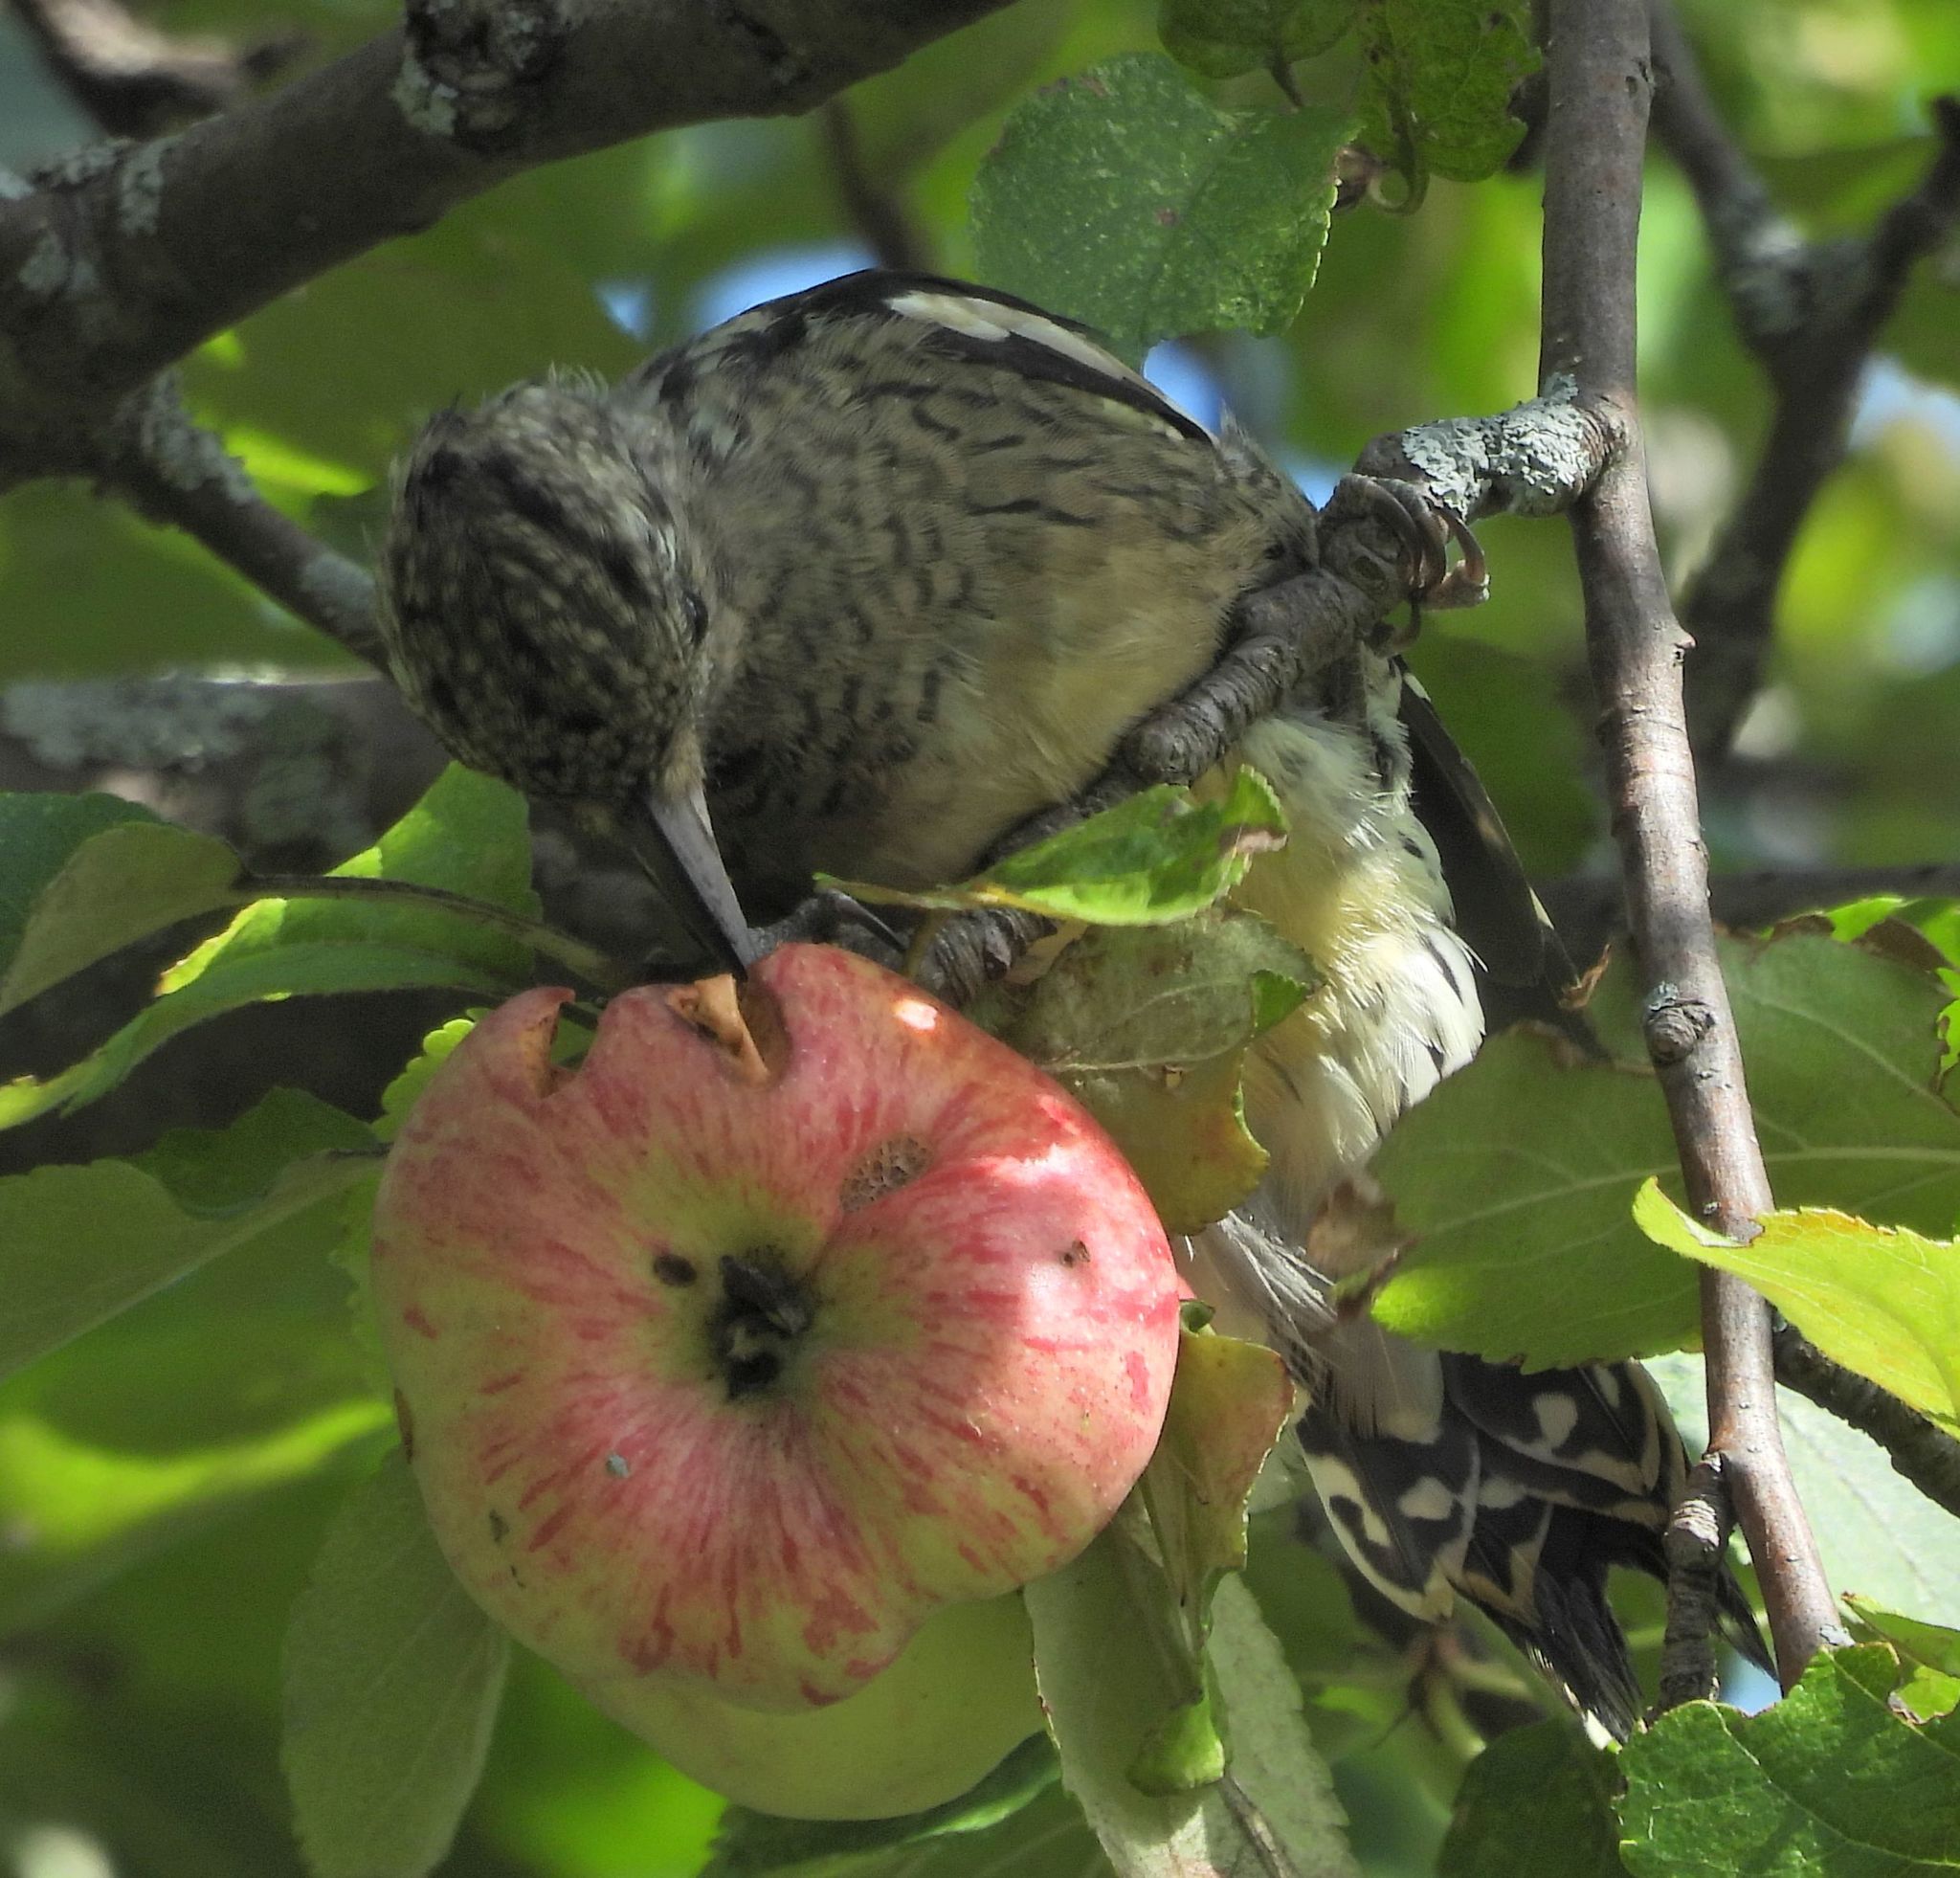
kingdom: Animalia
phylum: Chordata
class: Aves
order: Piciformes
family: Picidae
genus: Sphyrapicus
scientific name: Sphyrapicus varius
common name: Yellow-bellied sapsucker
